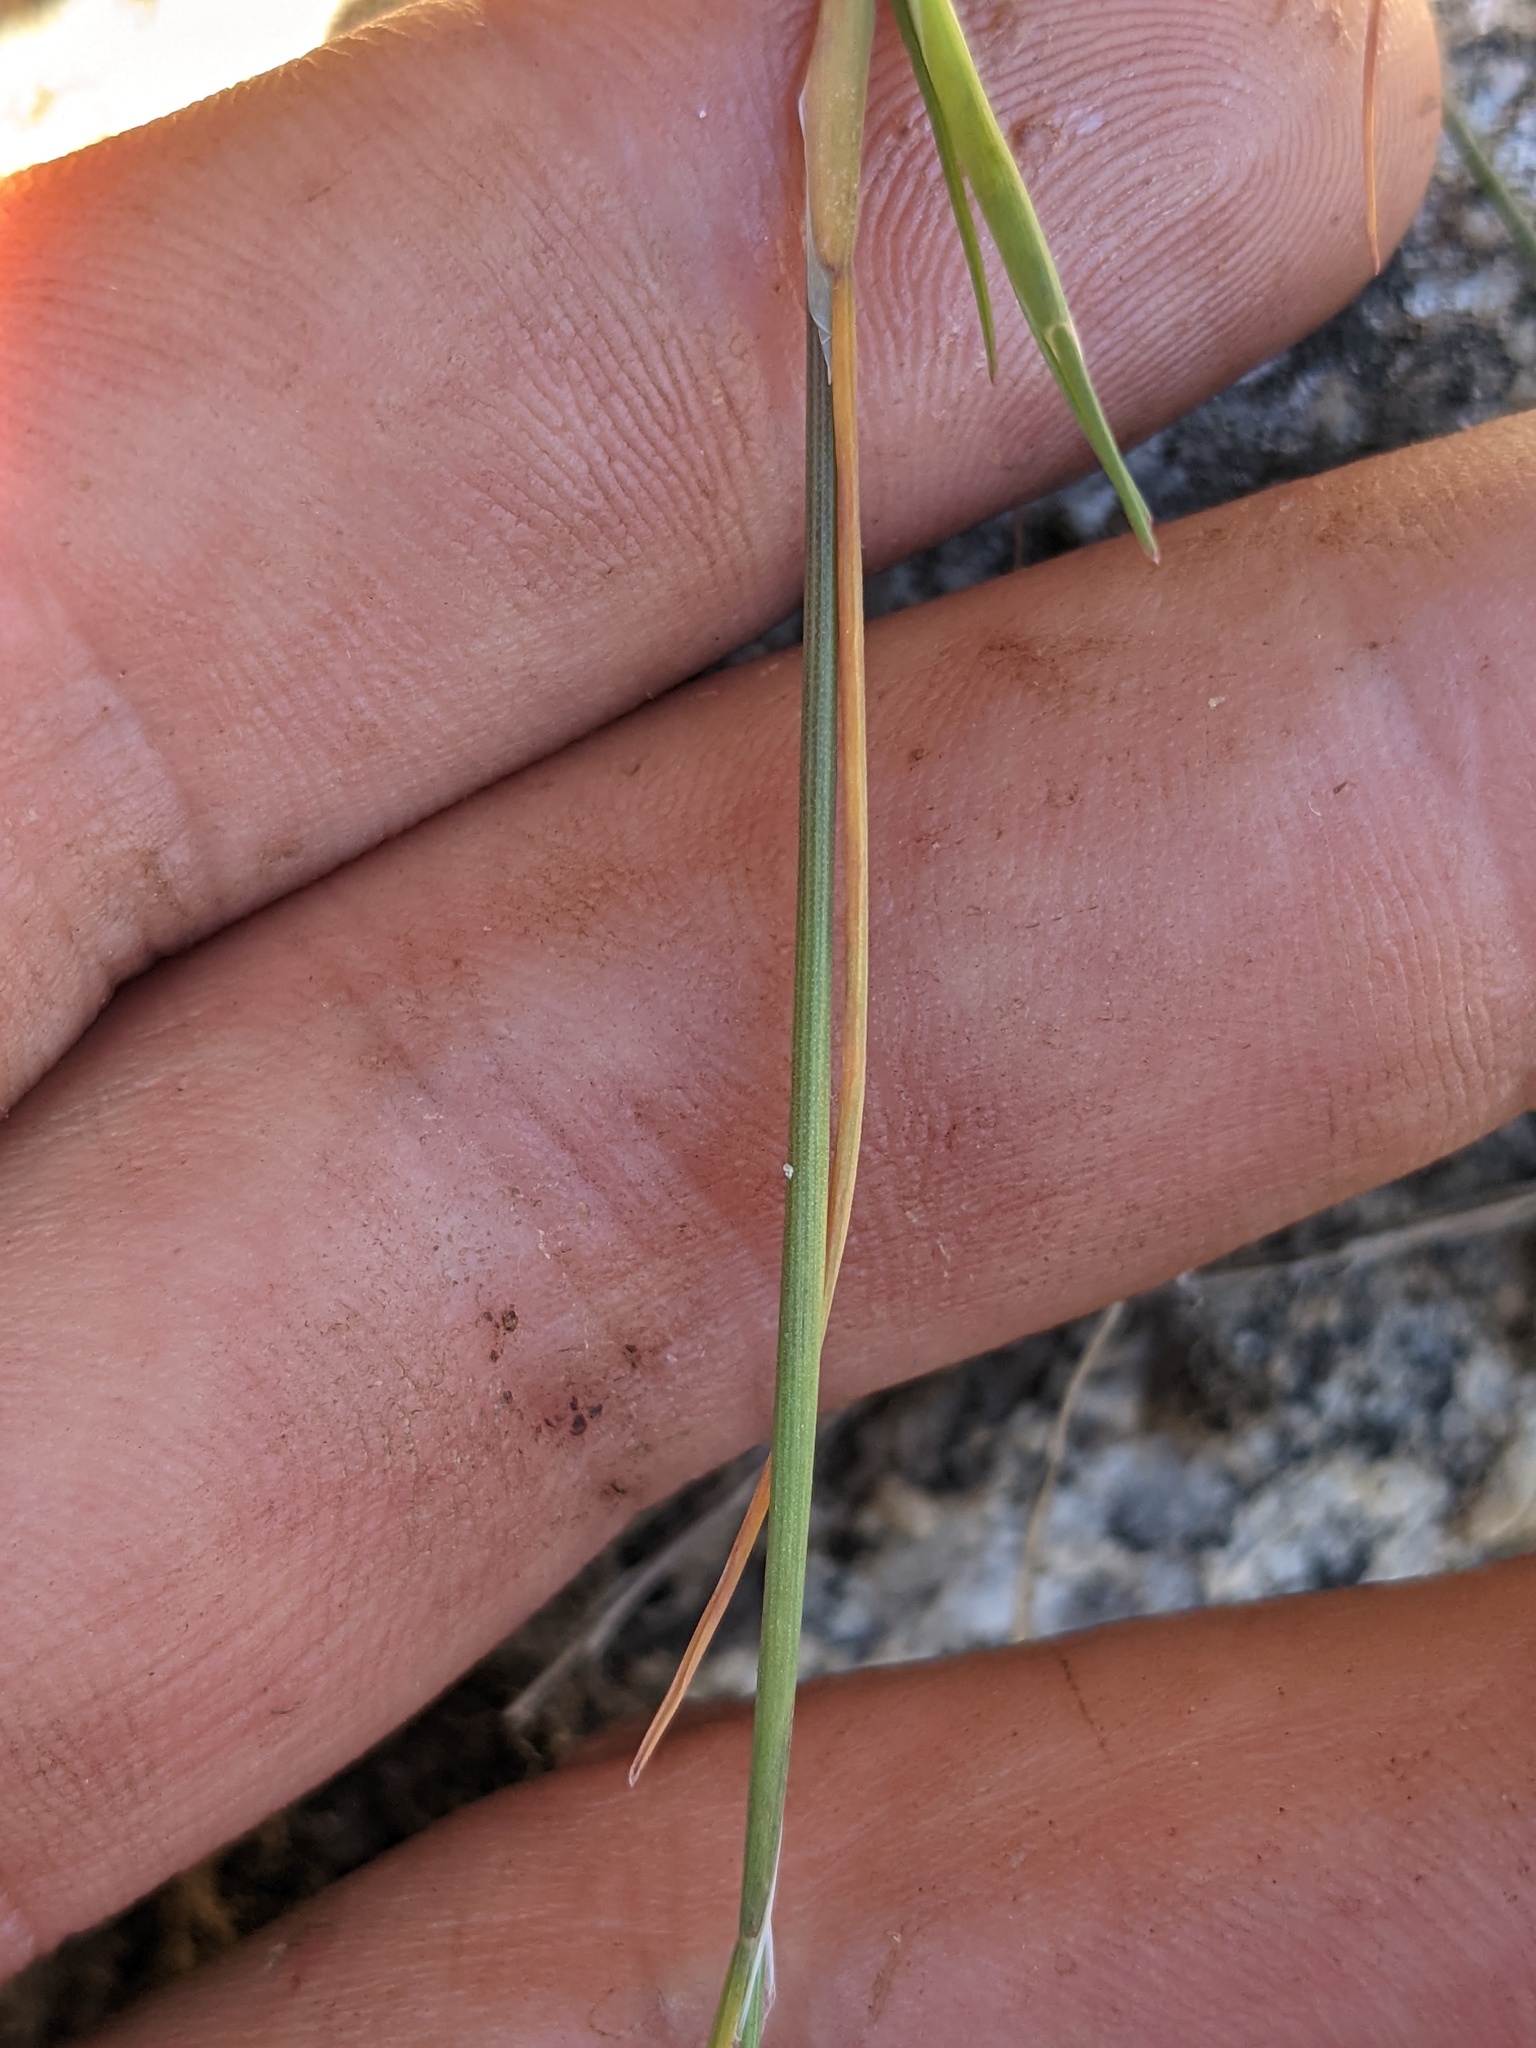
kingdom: Plantae
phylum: Tracheophyta
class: Liliopsida
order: Poales
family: Poaceae
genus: Aira
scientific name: Aira caryophyllea
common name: Silver hairgrass
